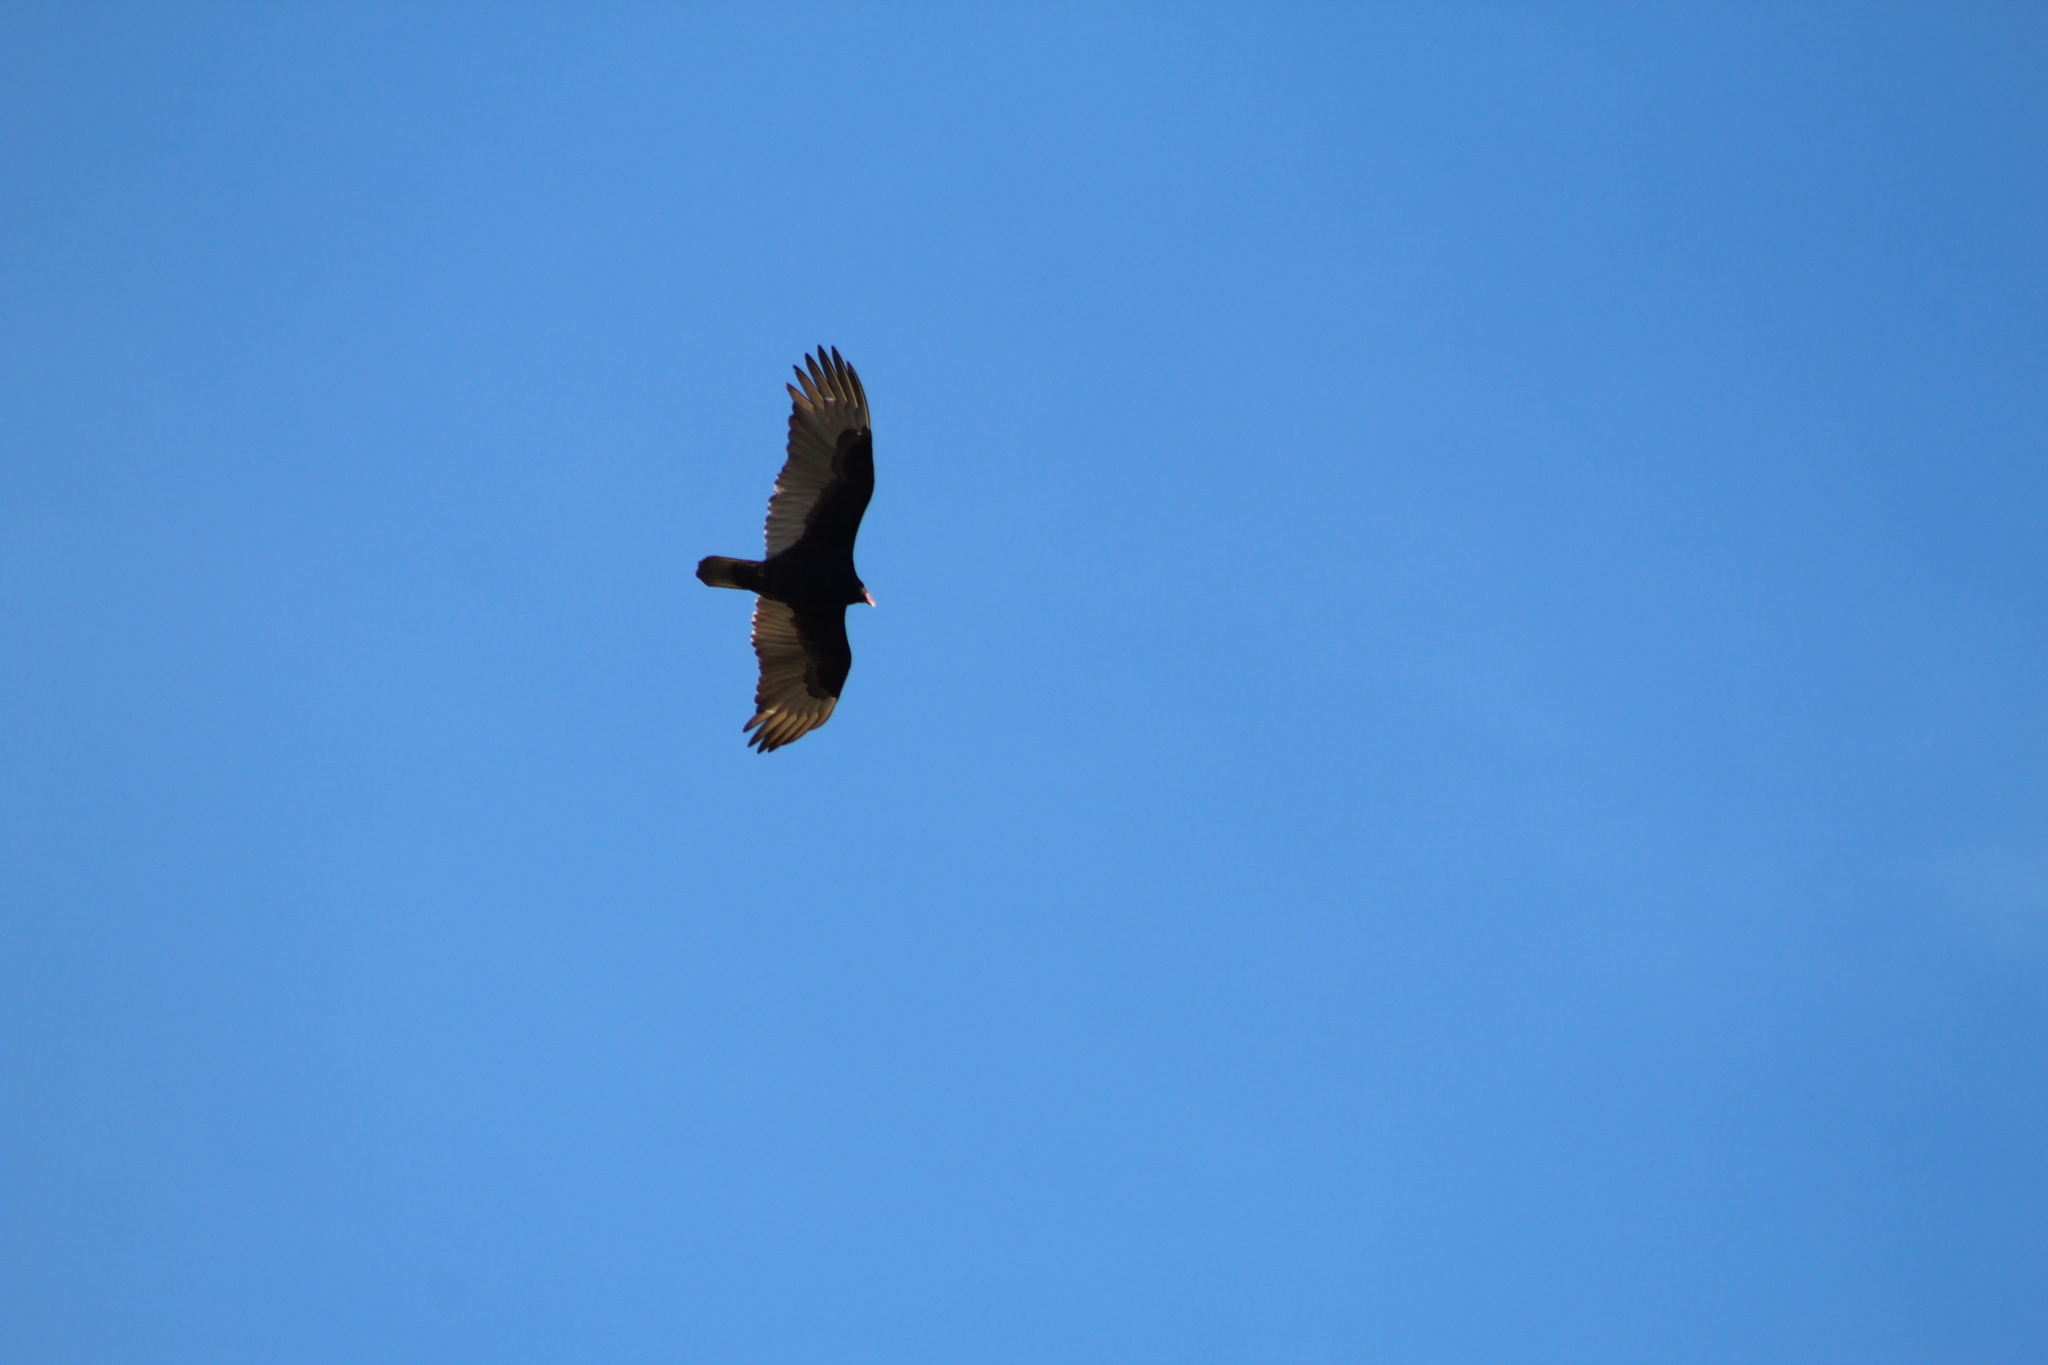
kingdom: Animalia
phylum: Chordata
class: Aves
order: Accipitriformes
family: Cathartidae
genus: Cathartes
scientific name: Cathartes aura
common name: Turkey vulture
